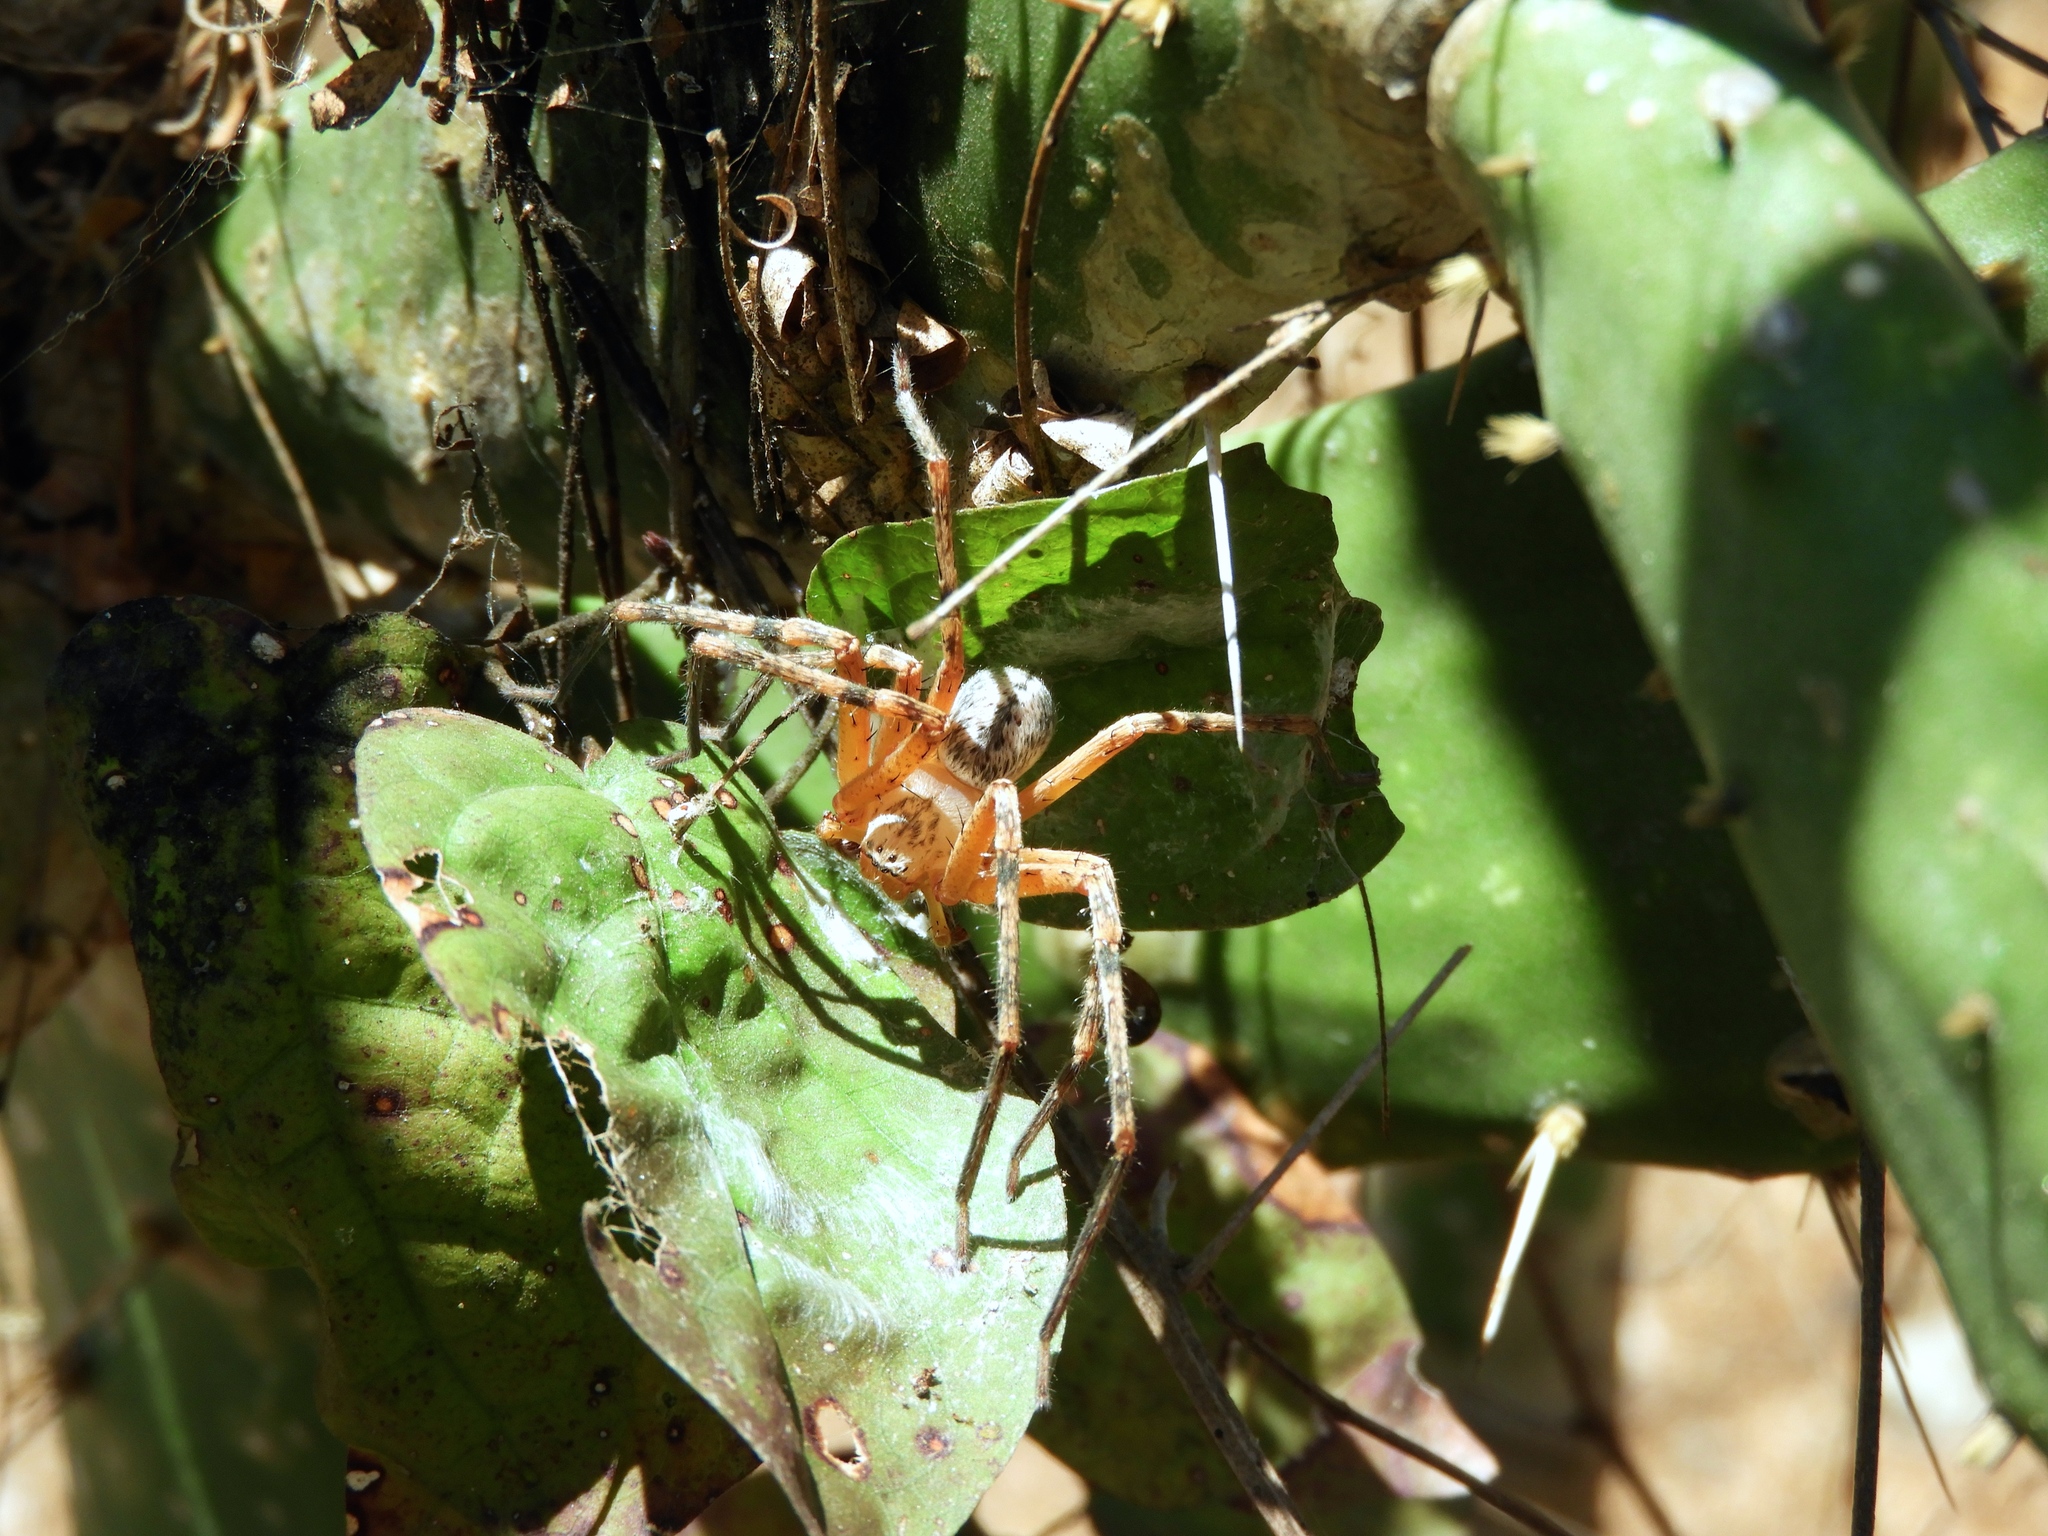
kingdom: Animalia
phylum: Arthropoda
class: Arachnida
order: Araneae
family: Sparassidae
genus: Curicaberis
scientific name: Curicaberis culiacan
